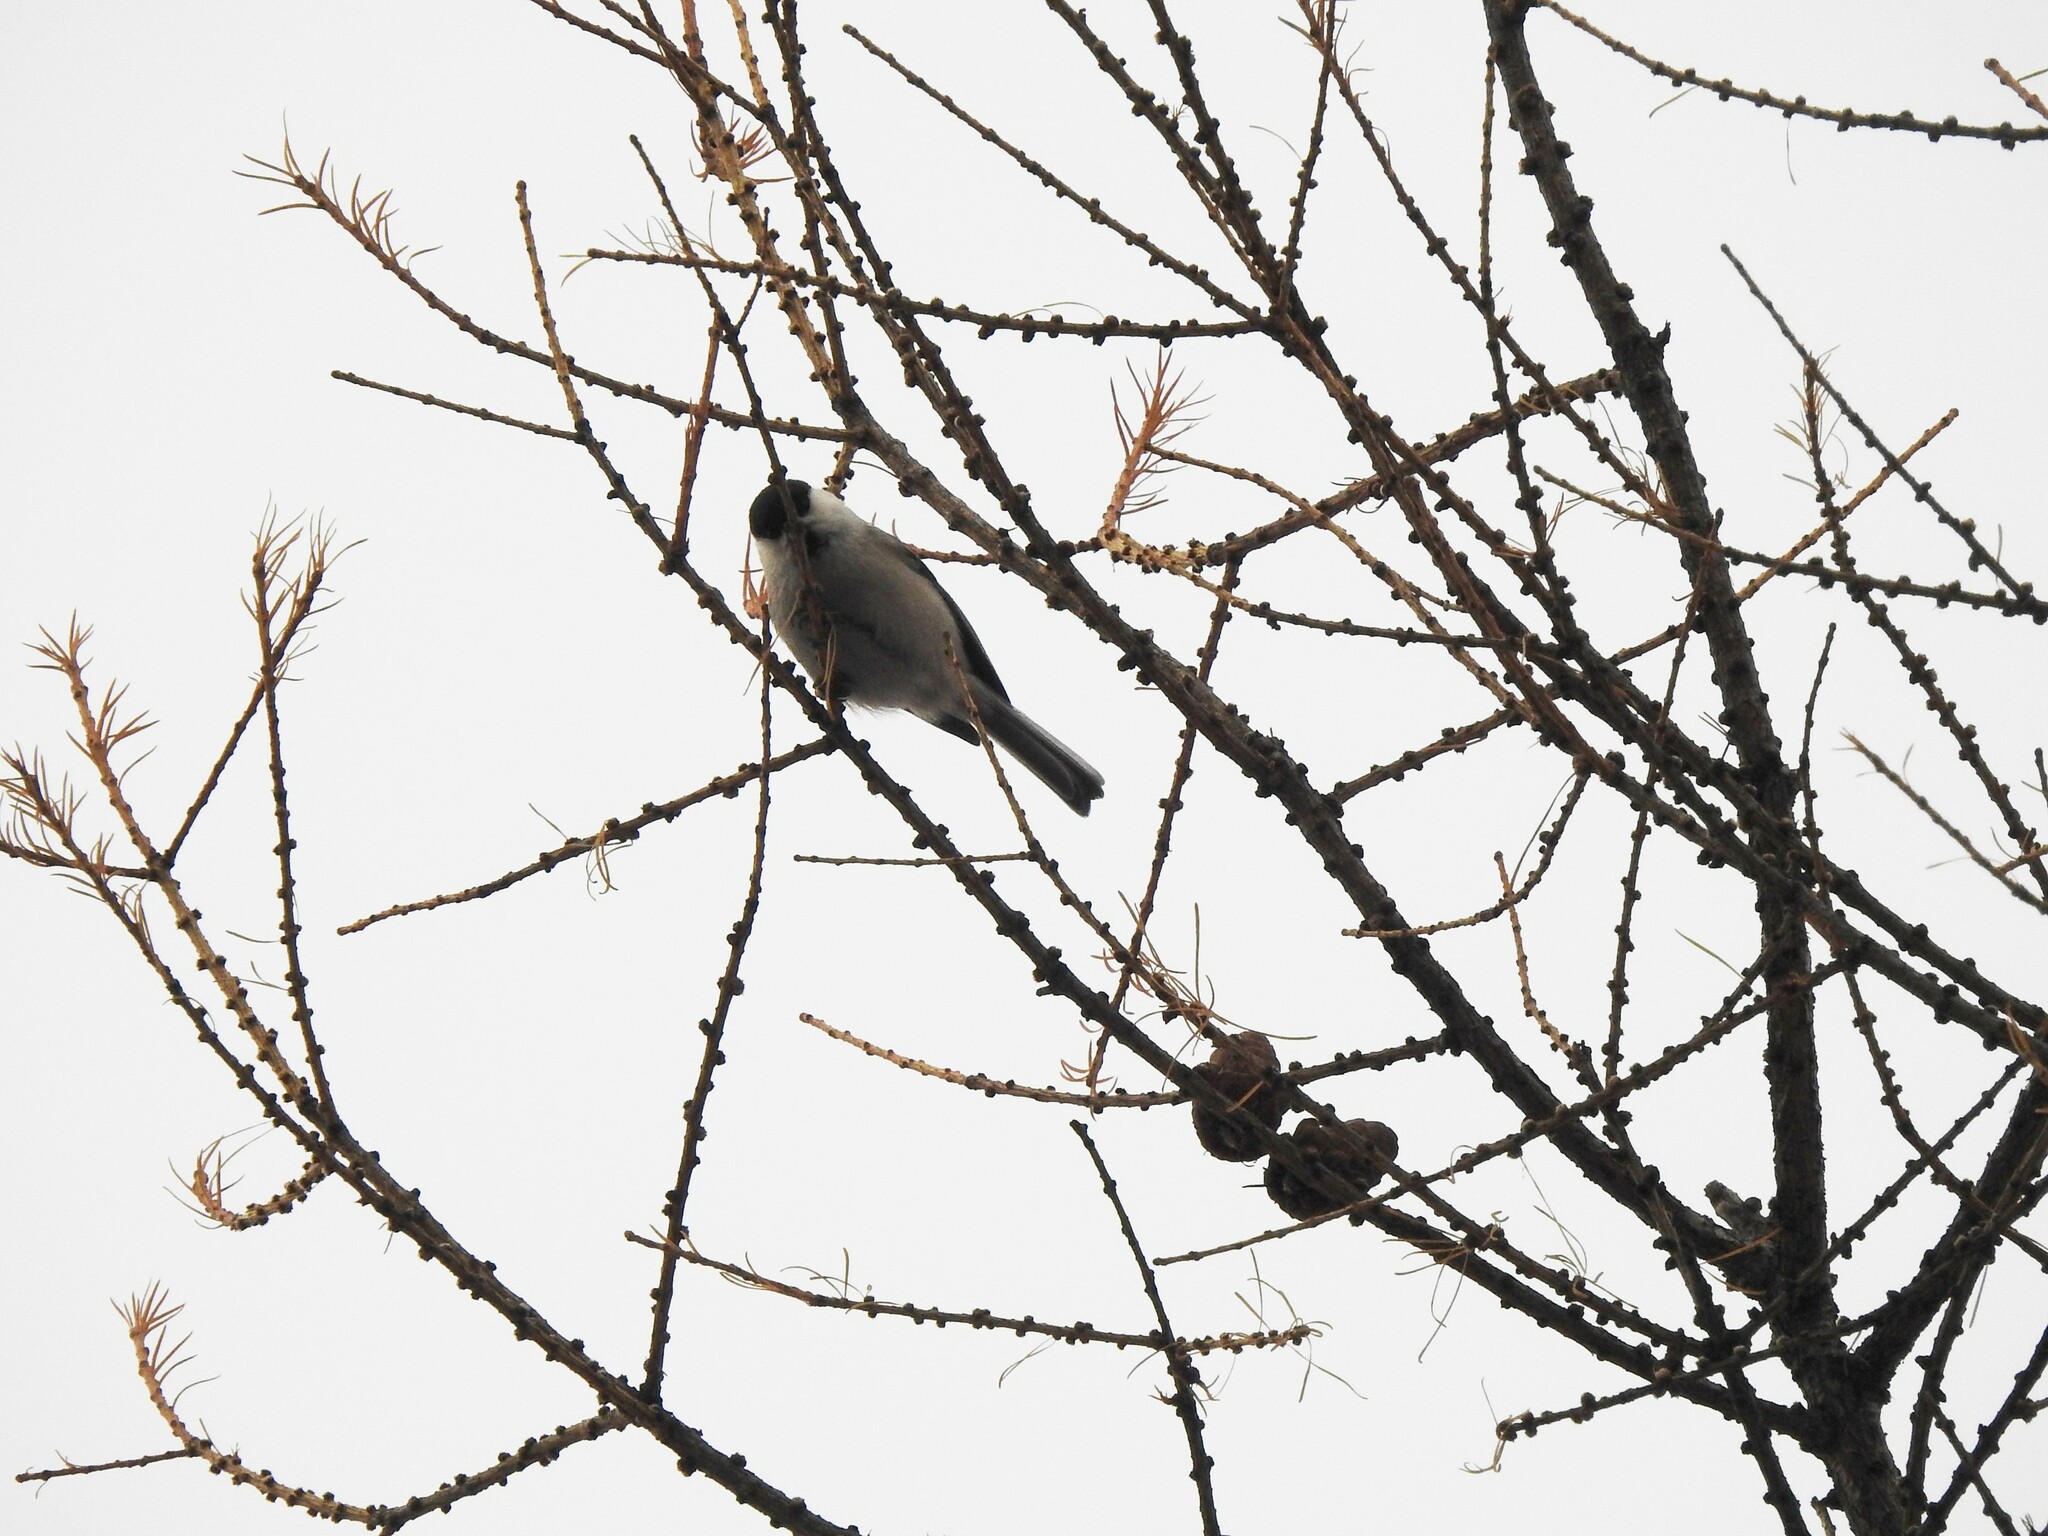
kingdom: Animalia
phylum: Chordata
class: Aves
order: Passeriformes
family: Paridae
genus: Poecile
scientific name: Poecile montanus
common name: Willow tit
